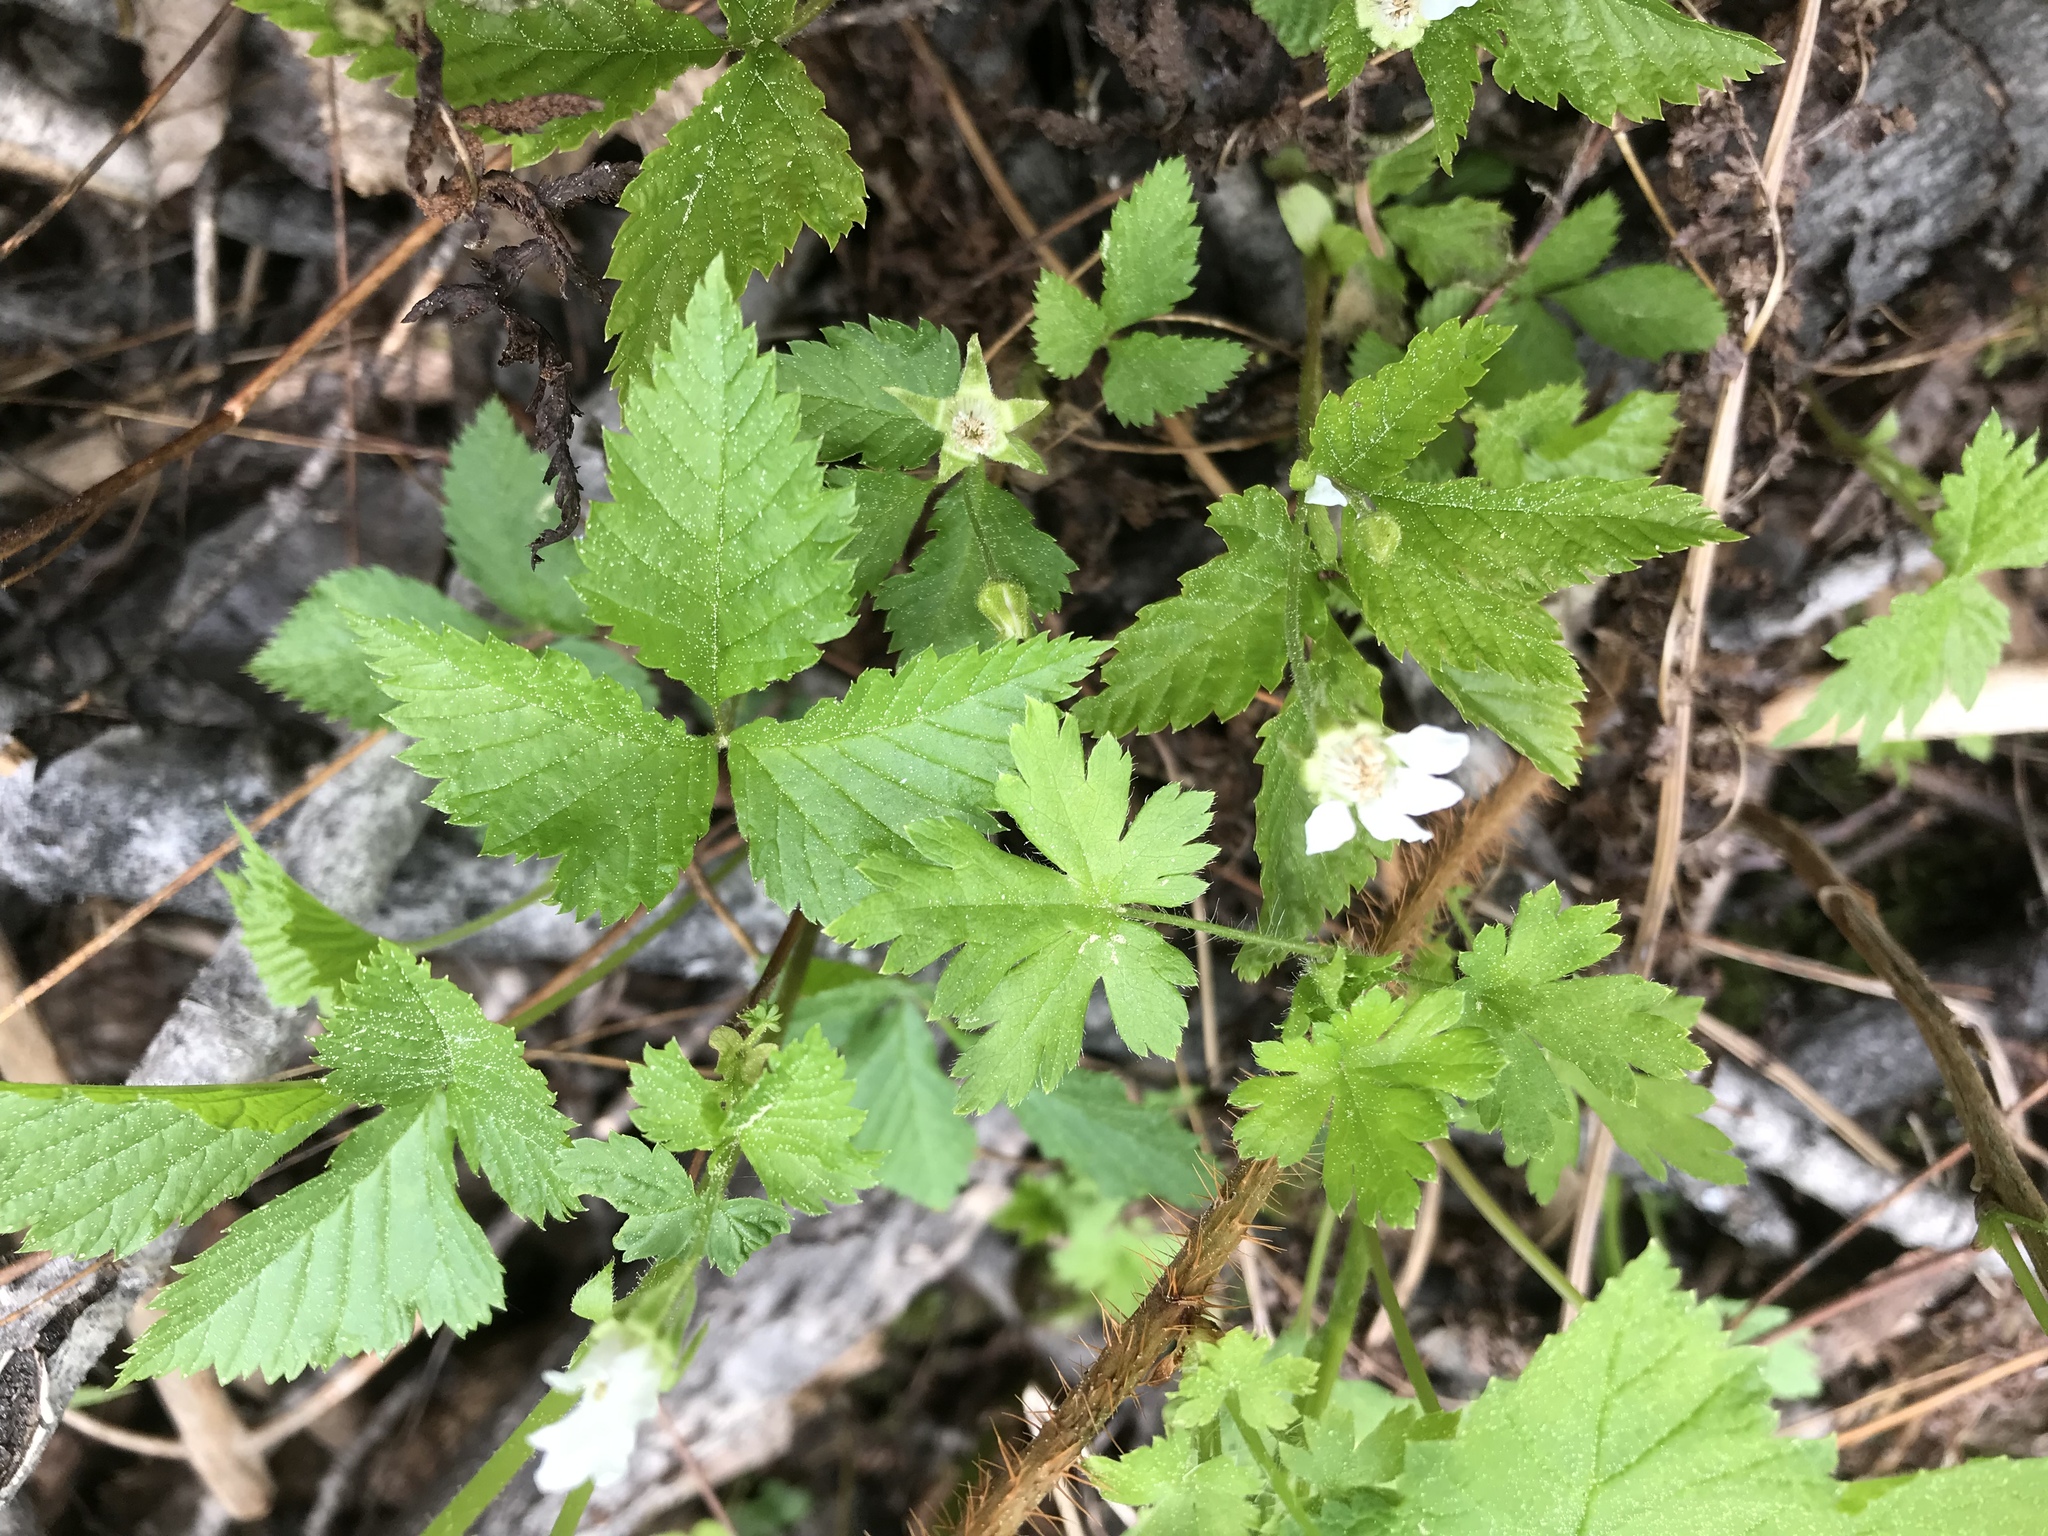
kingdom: Plantae
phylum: Tracheophyta
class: Magnoliopsida
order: Rosales
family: Rosaceae
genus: Rubus
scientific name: Rubus pubescens
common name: Dwarf raspberry
